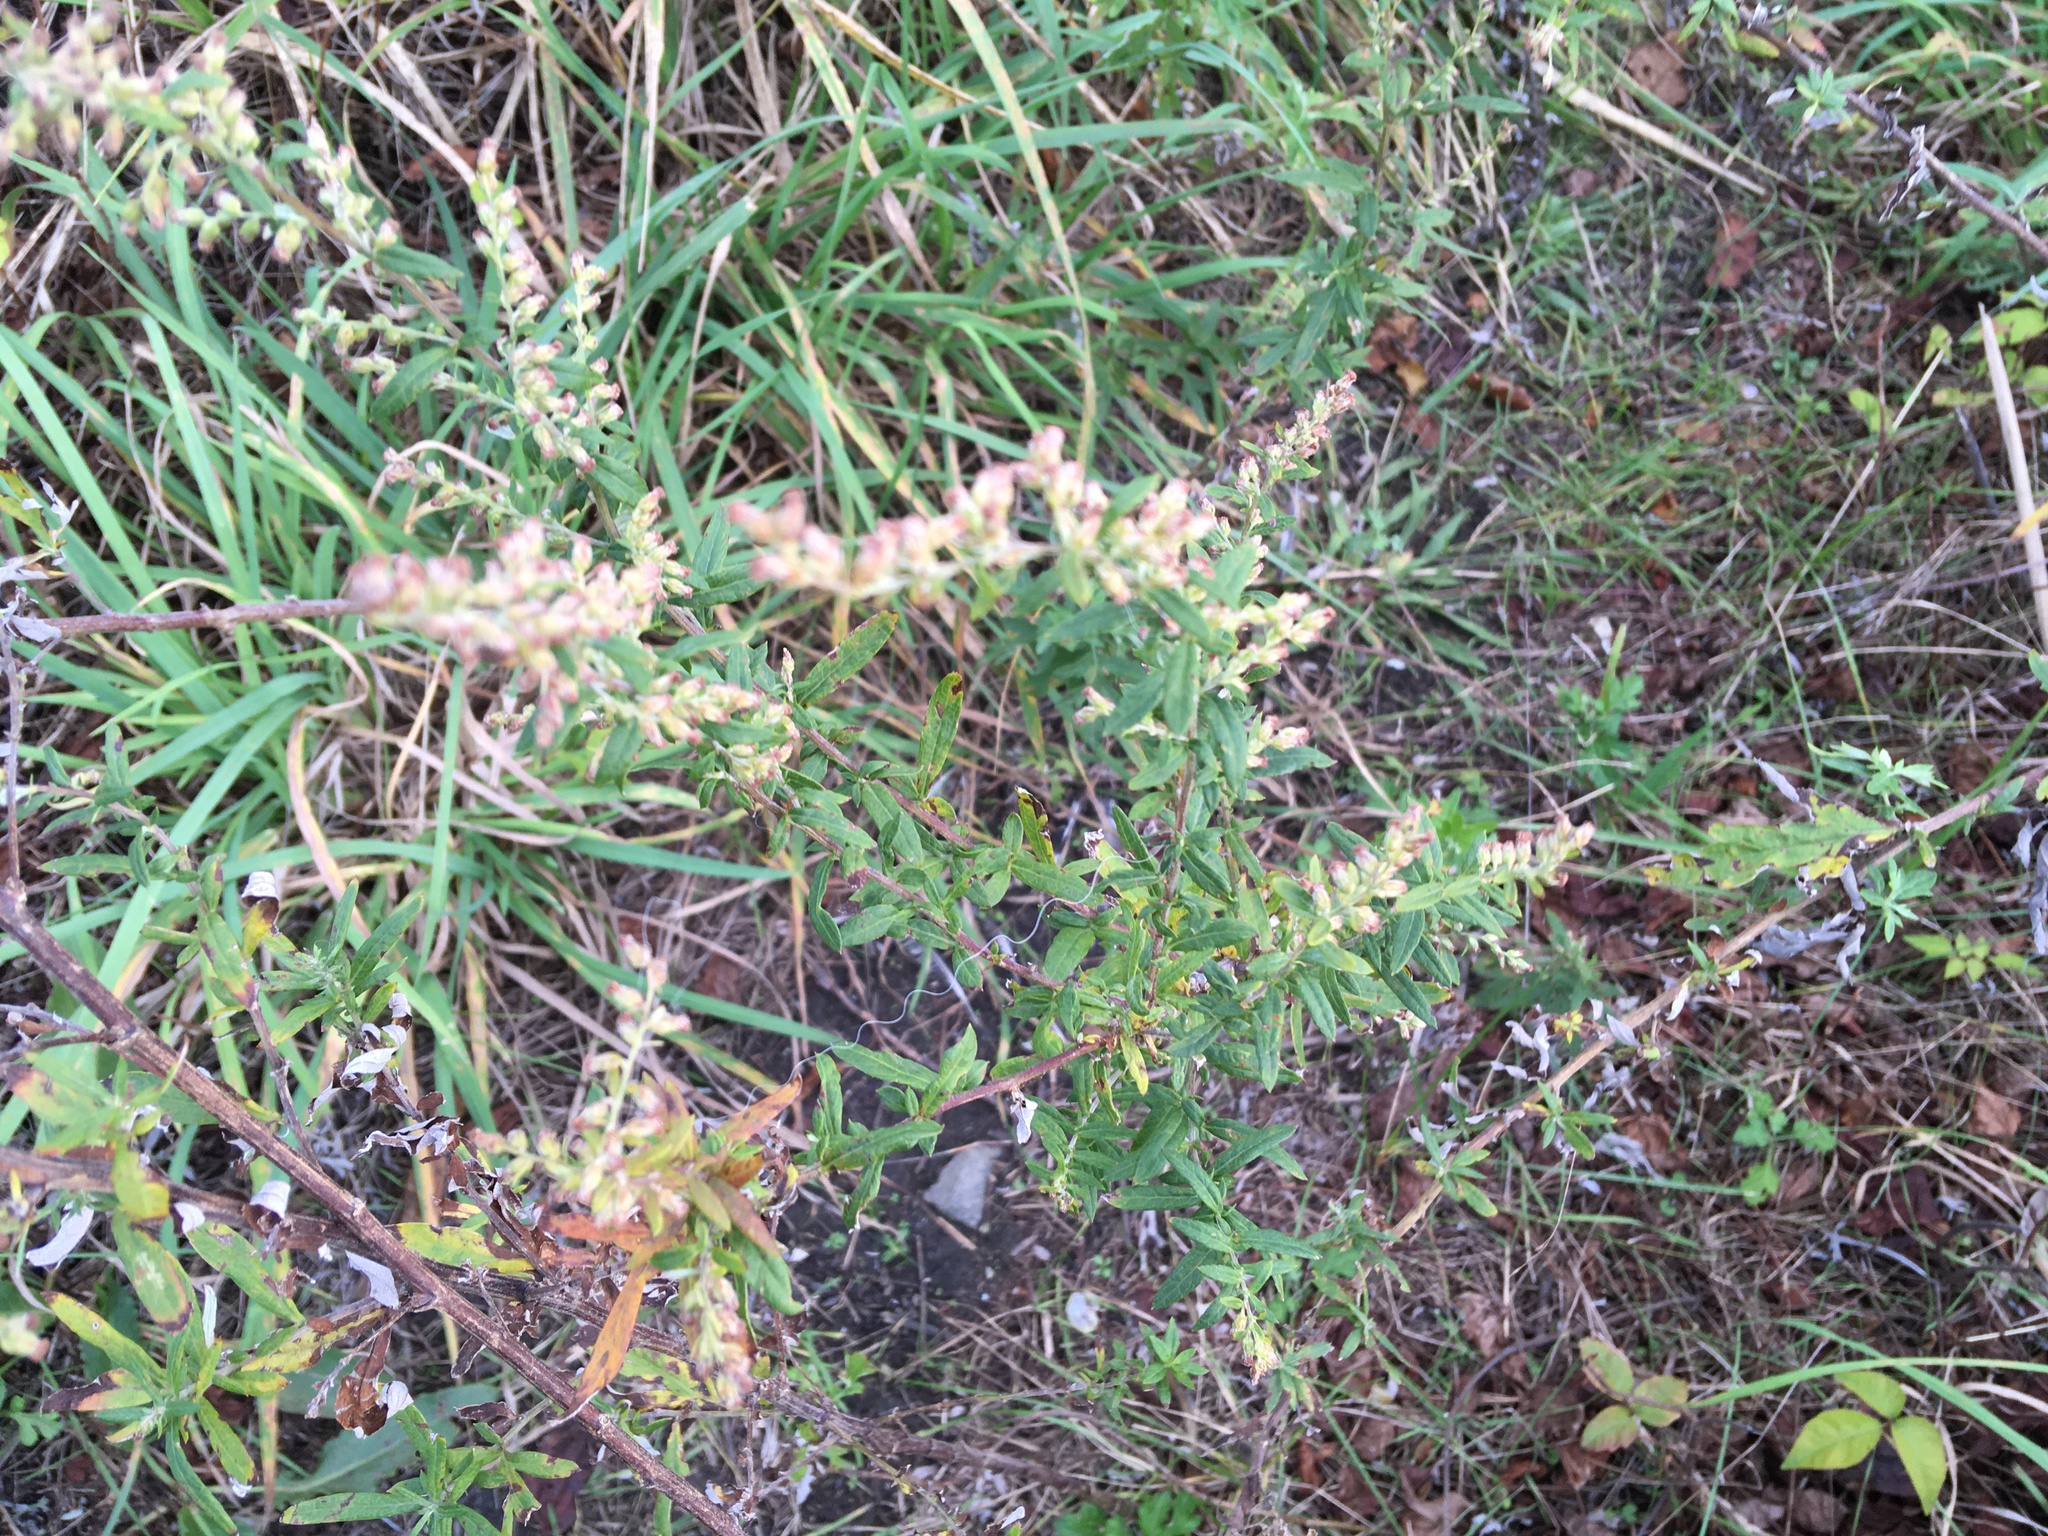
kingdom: Plantae
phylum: Tracheophyta
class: Magnoliopsida
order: Asterales
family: Asteraceae
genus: Artemisia
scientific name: Artemisia vulgaris
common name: Mugwort
